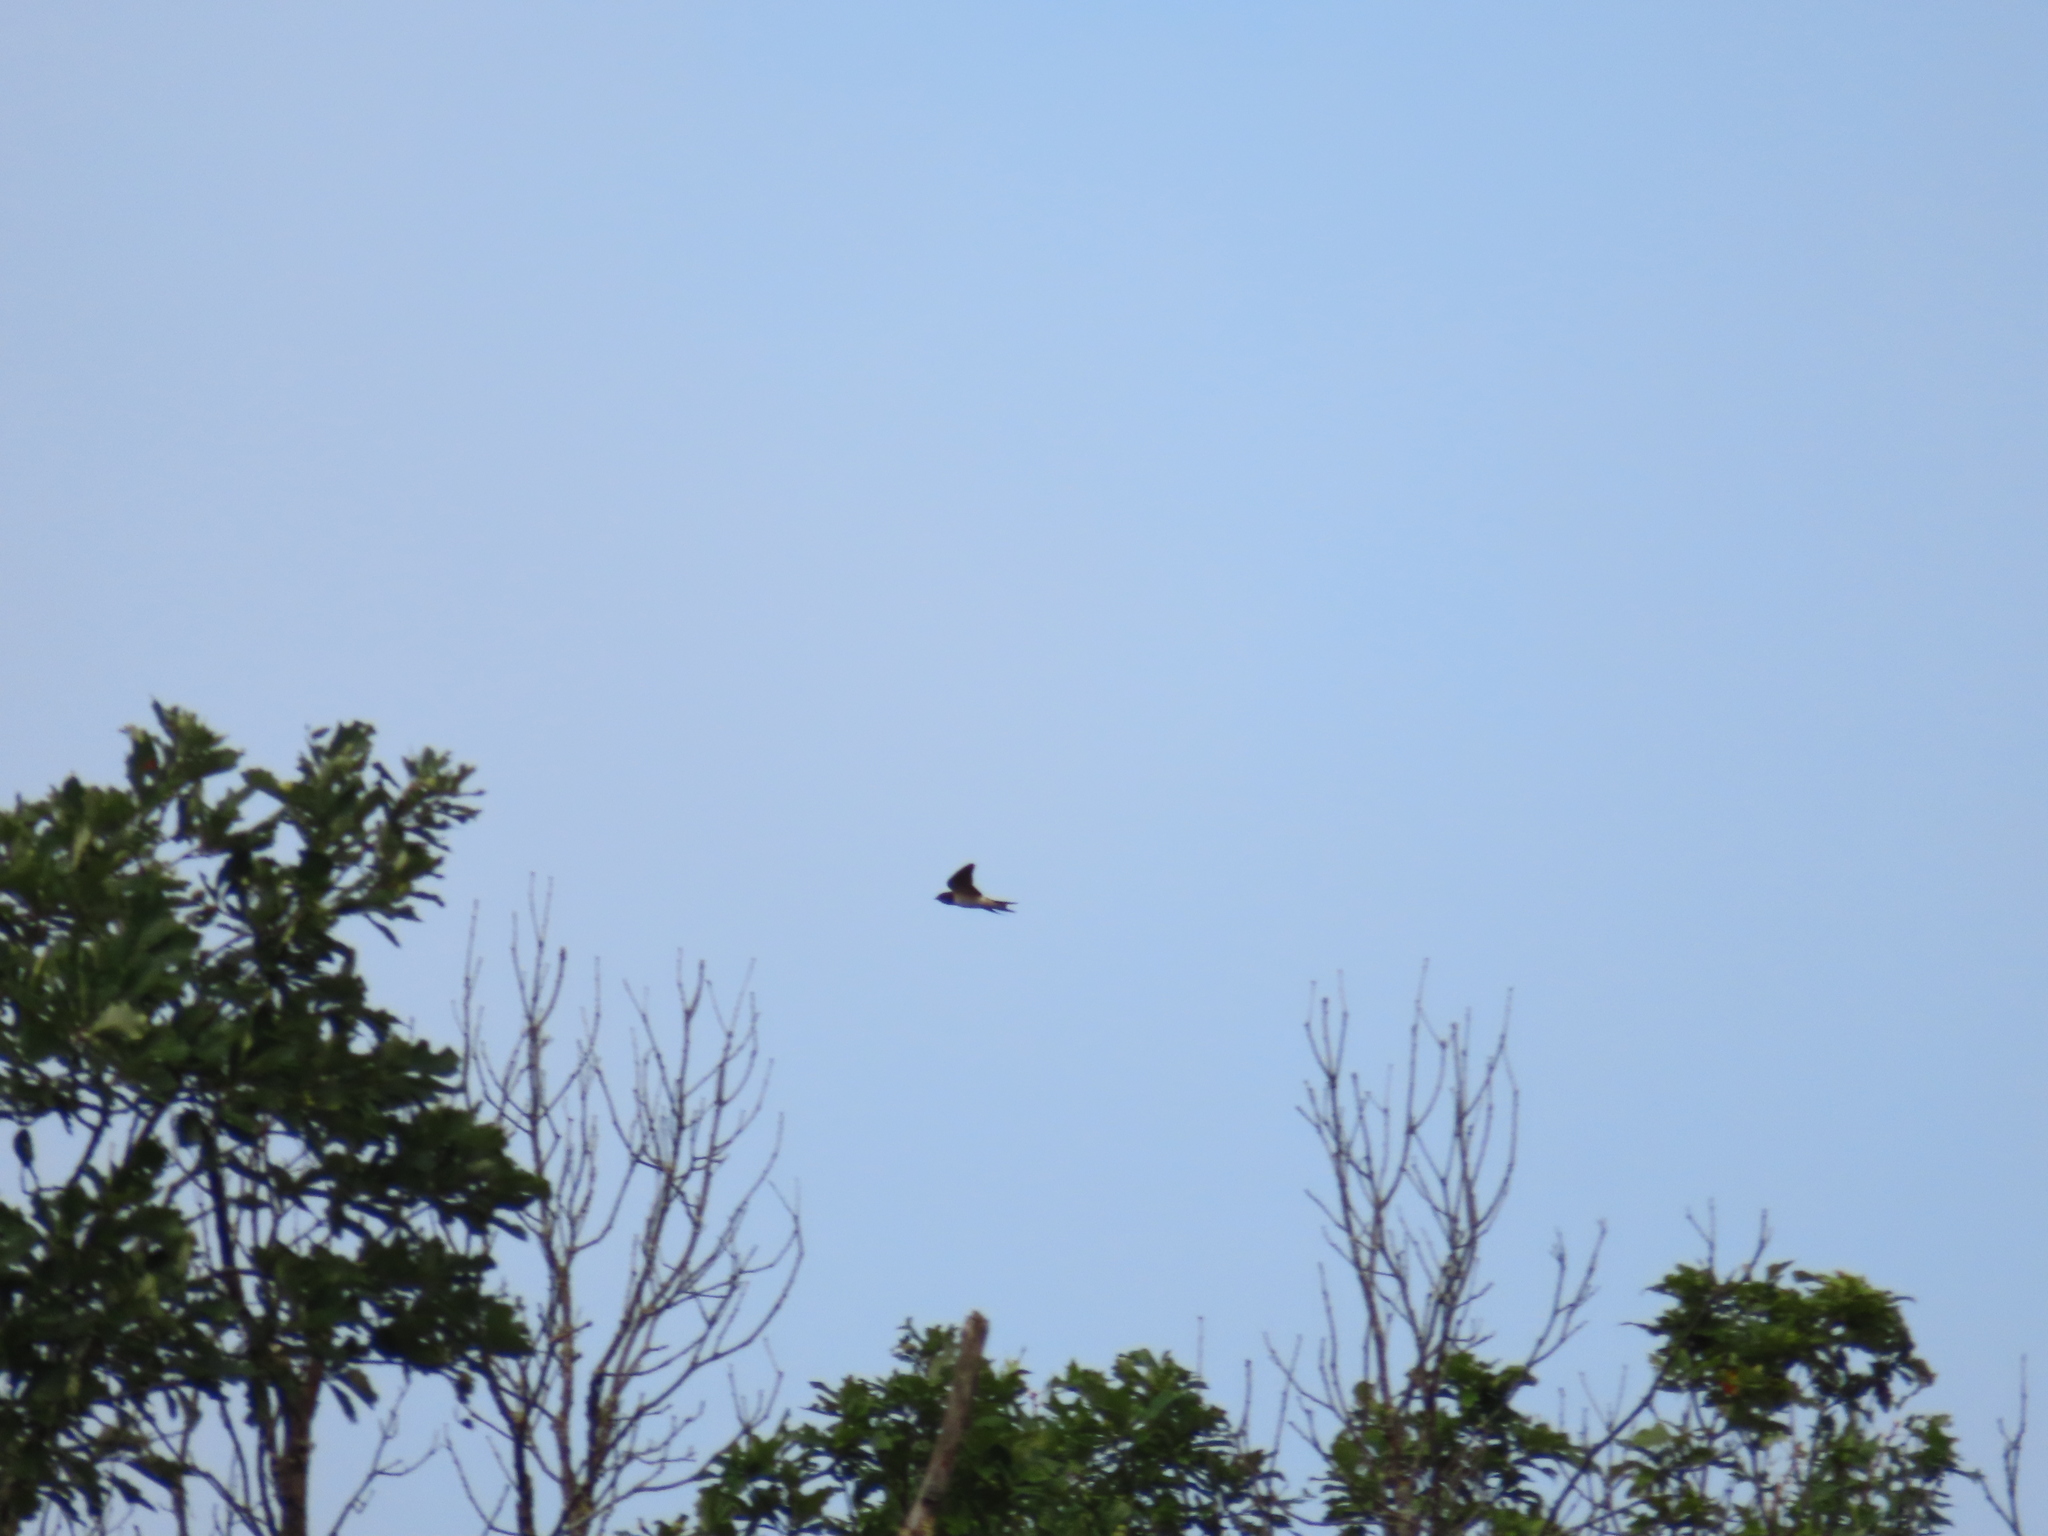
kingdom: Animalia
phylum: Chordata
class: Aves
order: Passeriformes
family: Hirundinidae
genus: Hirundo
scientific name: Hirundo rustica
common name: Barn swallow
